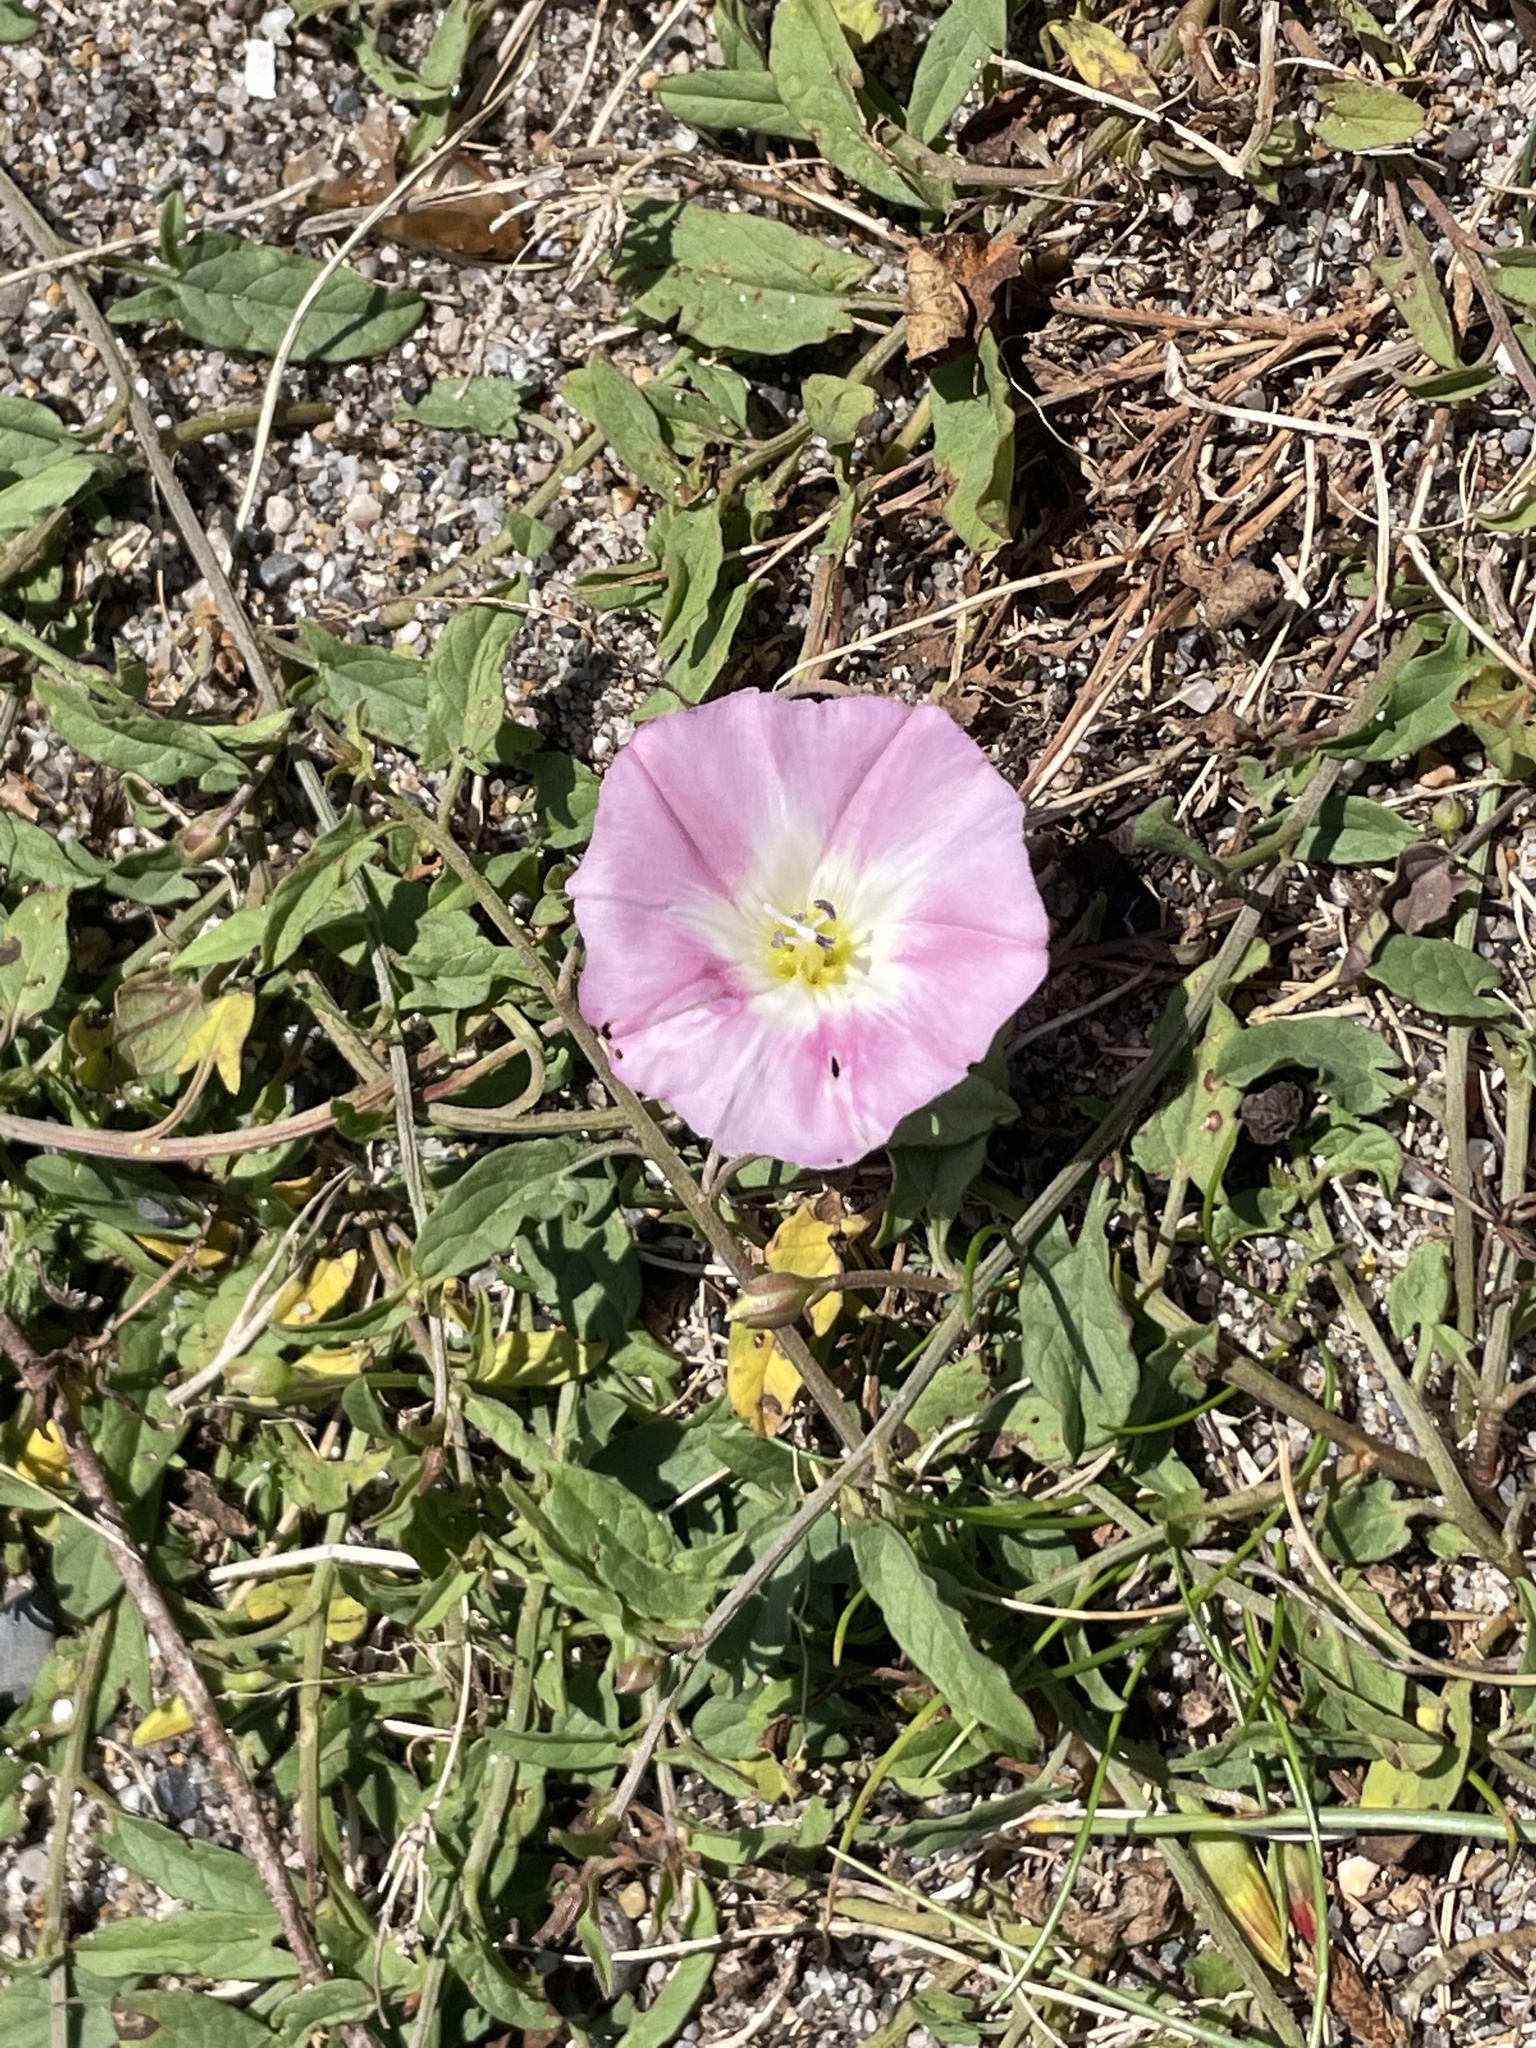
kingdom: Plantae
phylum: Tracheophyta
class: Magnoliopsida
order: Solanales
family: Convolvulaceae
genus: Convolvulus
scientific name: Convolvulus arvensis
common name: Field bindweed
